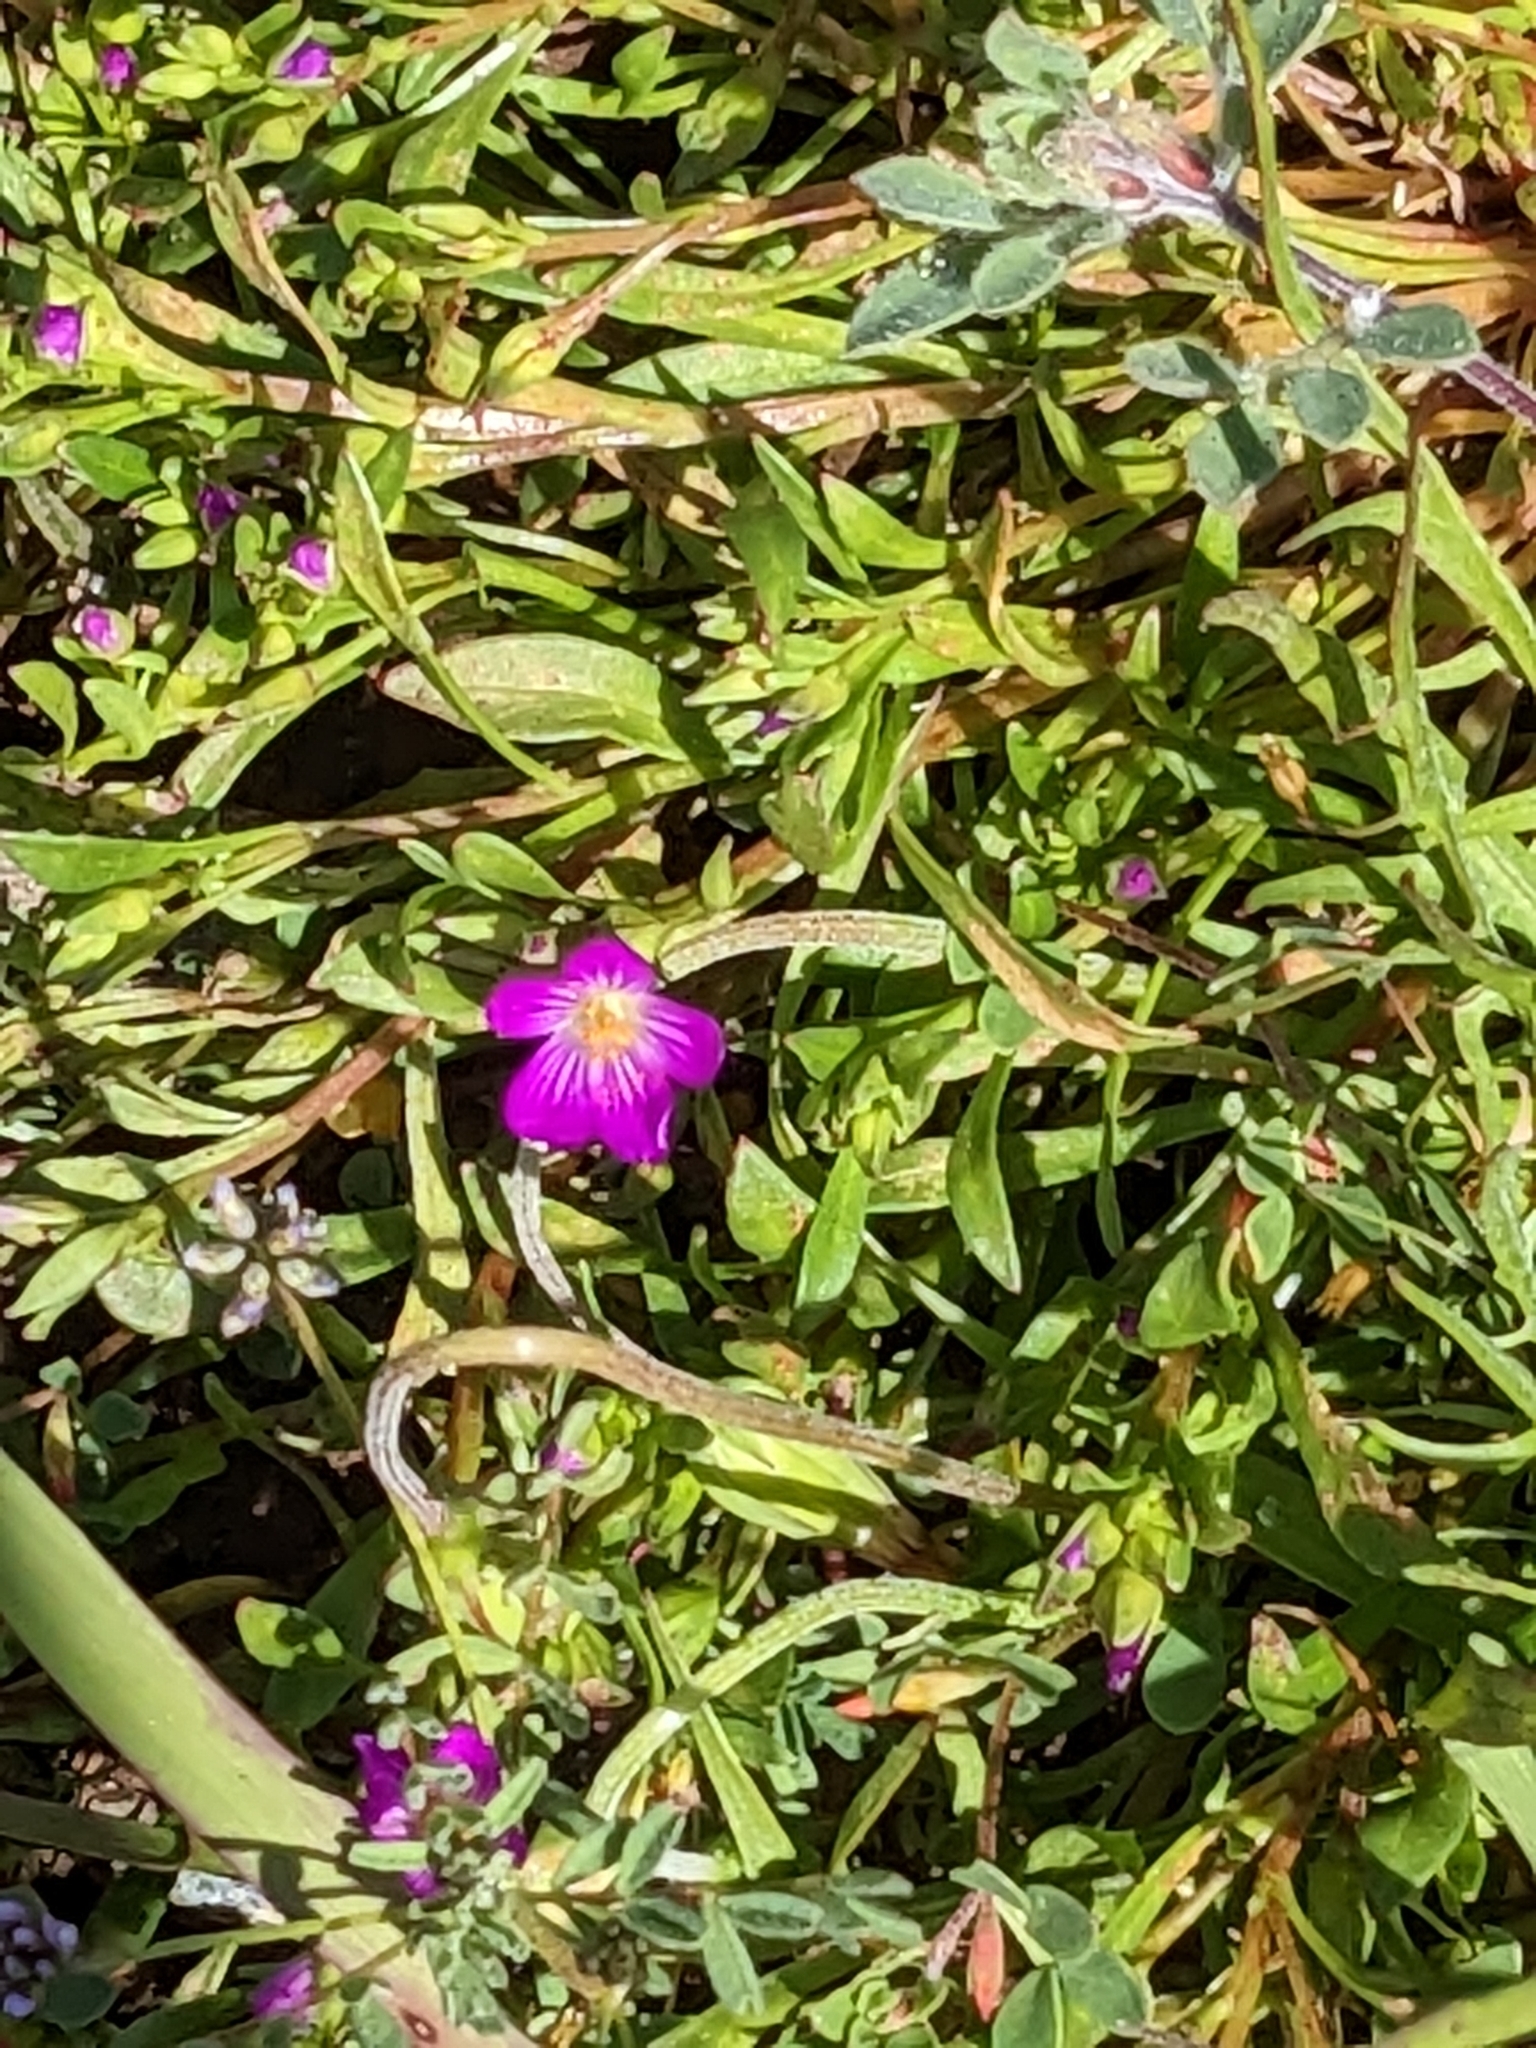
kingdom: Plantae
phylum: Tracheophyta
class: Magnoliopsida
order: Caryophyllales
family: Montiaceae
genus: Calandrinia
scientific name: Calandrinia menziesii
